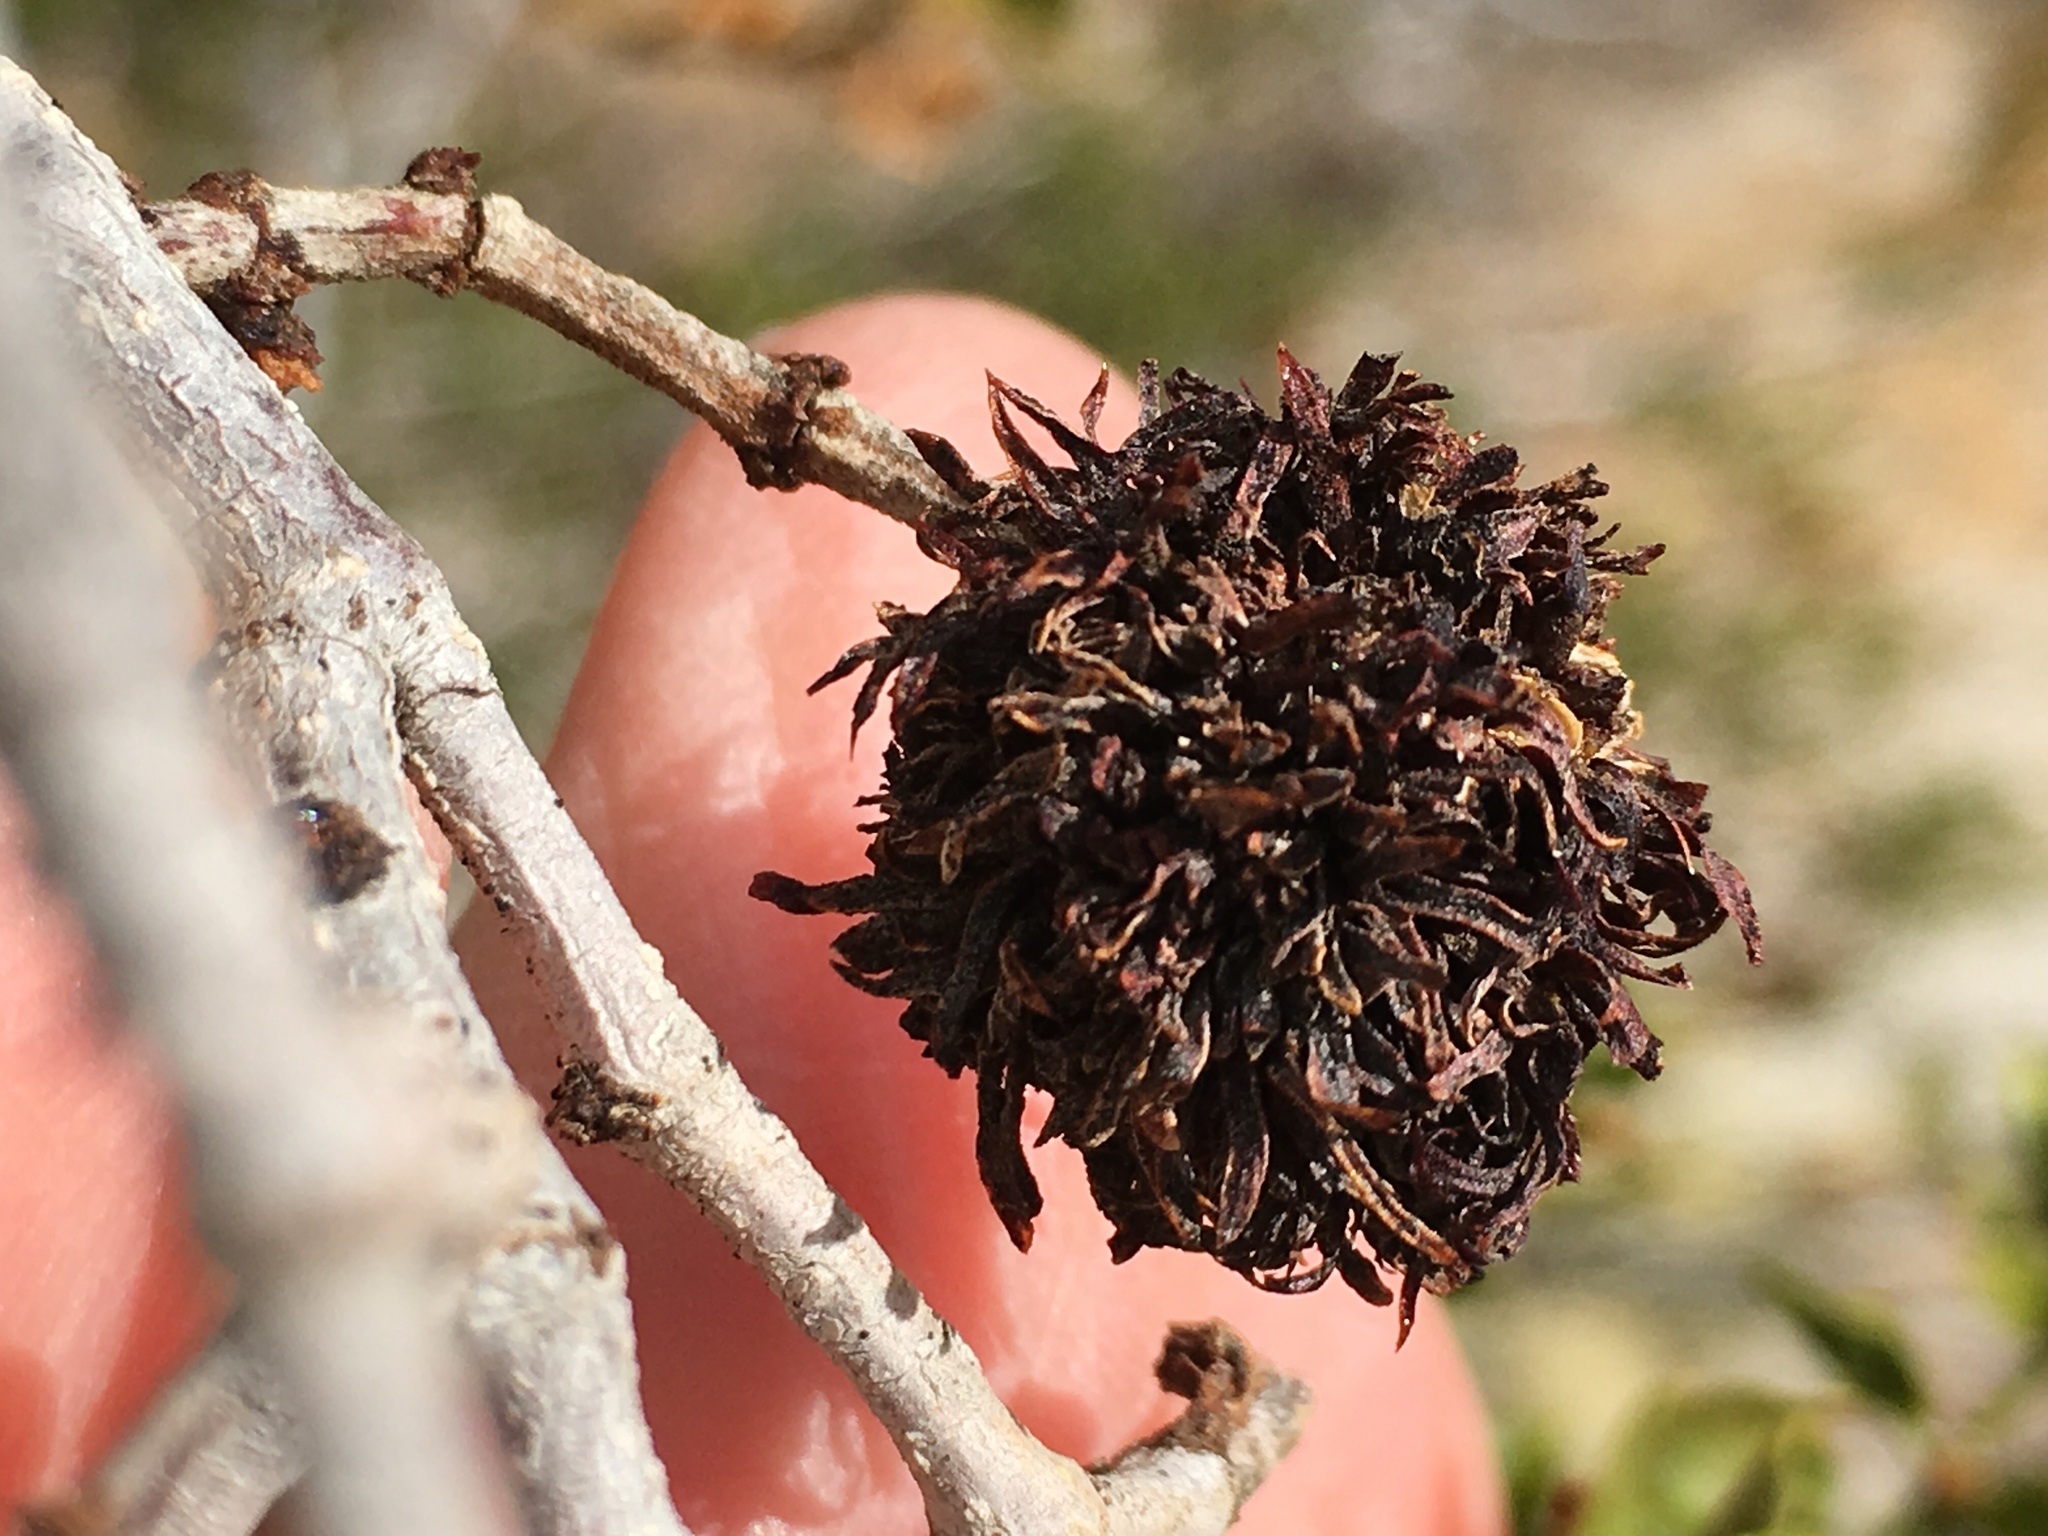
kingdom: Animalia
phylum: Arthropoda
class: Insecta
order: Diptera
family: Cecidomyiidae
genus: Asphondylia
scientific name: Asphondylia auripila
